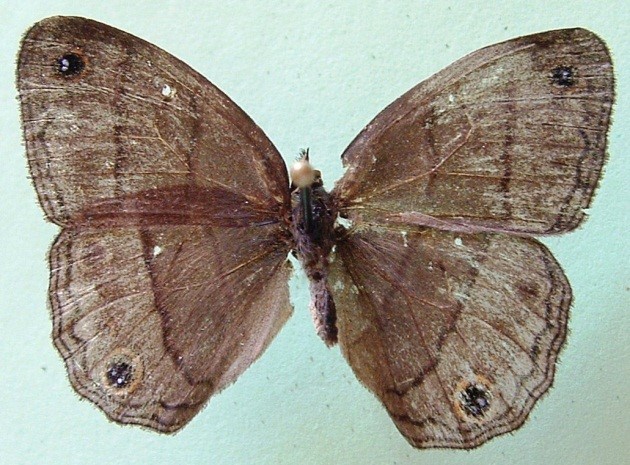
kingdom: Animalia
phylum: Arthropoda
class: Insecta
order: Lepidoptera
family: Nymphalidae
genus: Euptychia
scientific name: Euptychia Cissia pompilia
